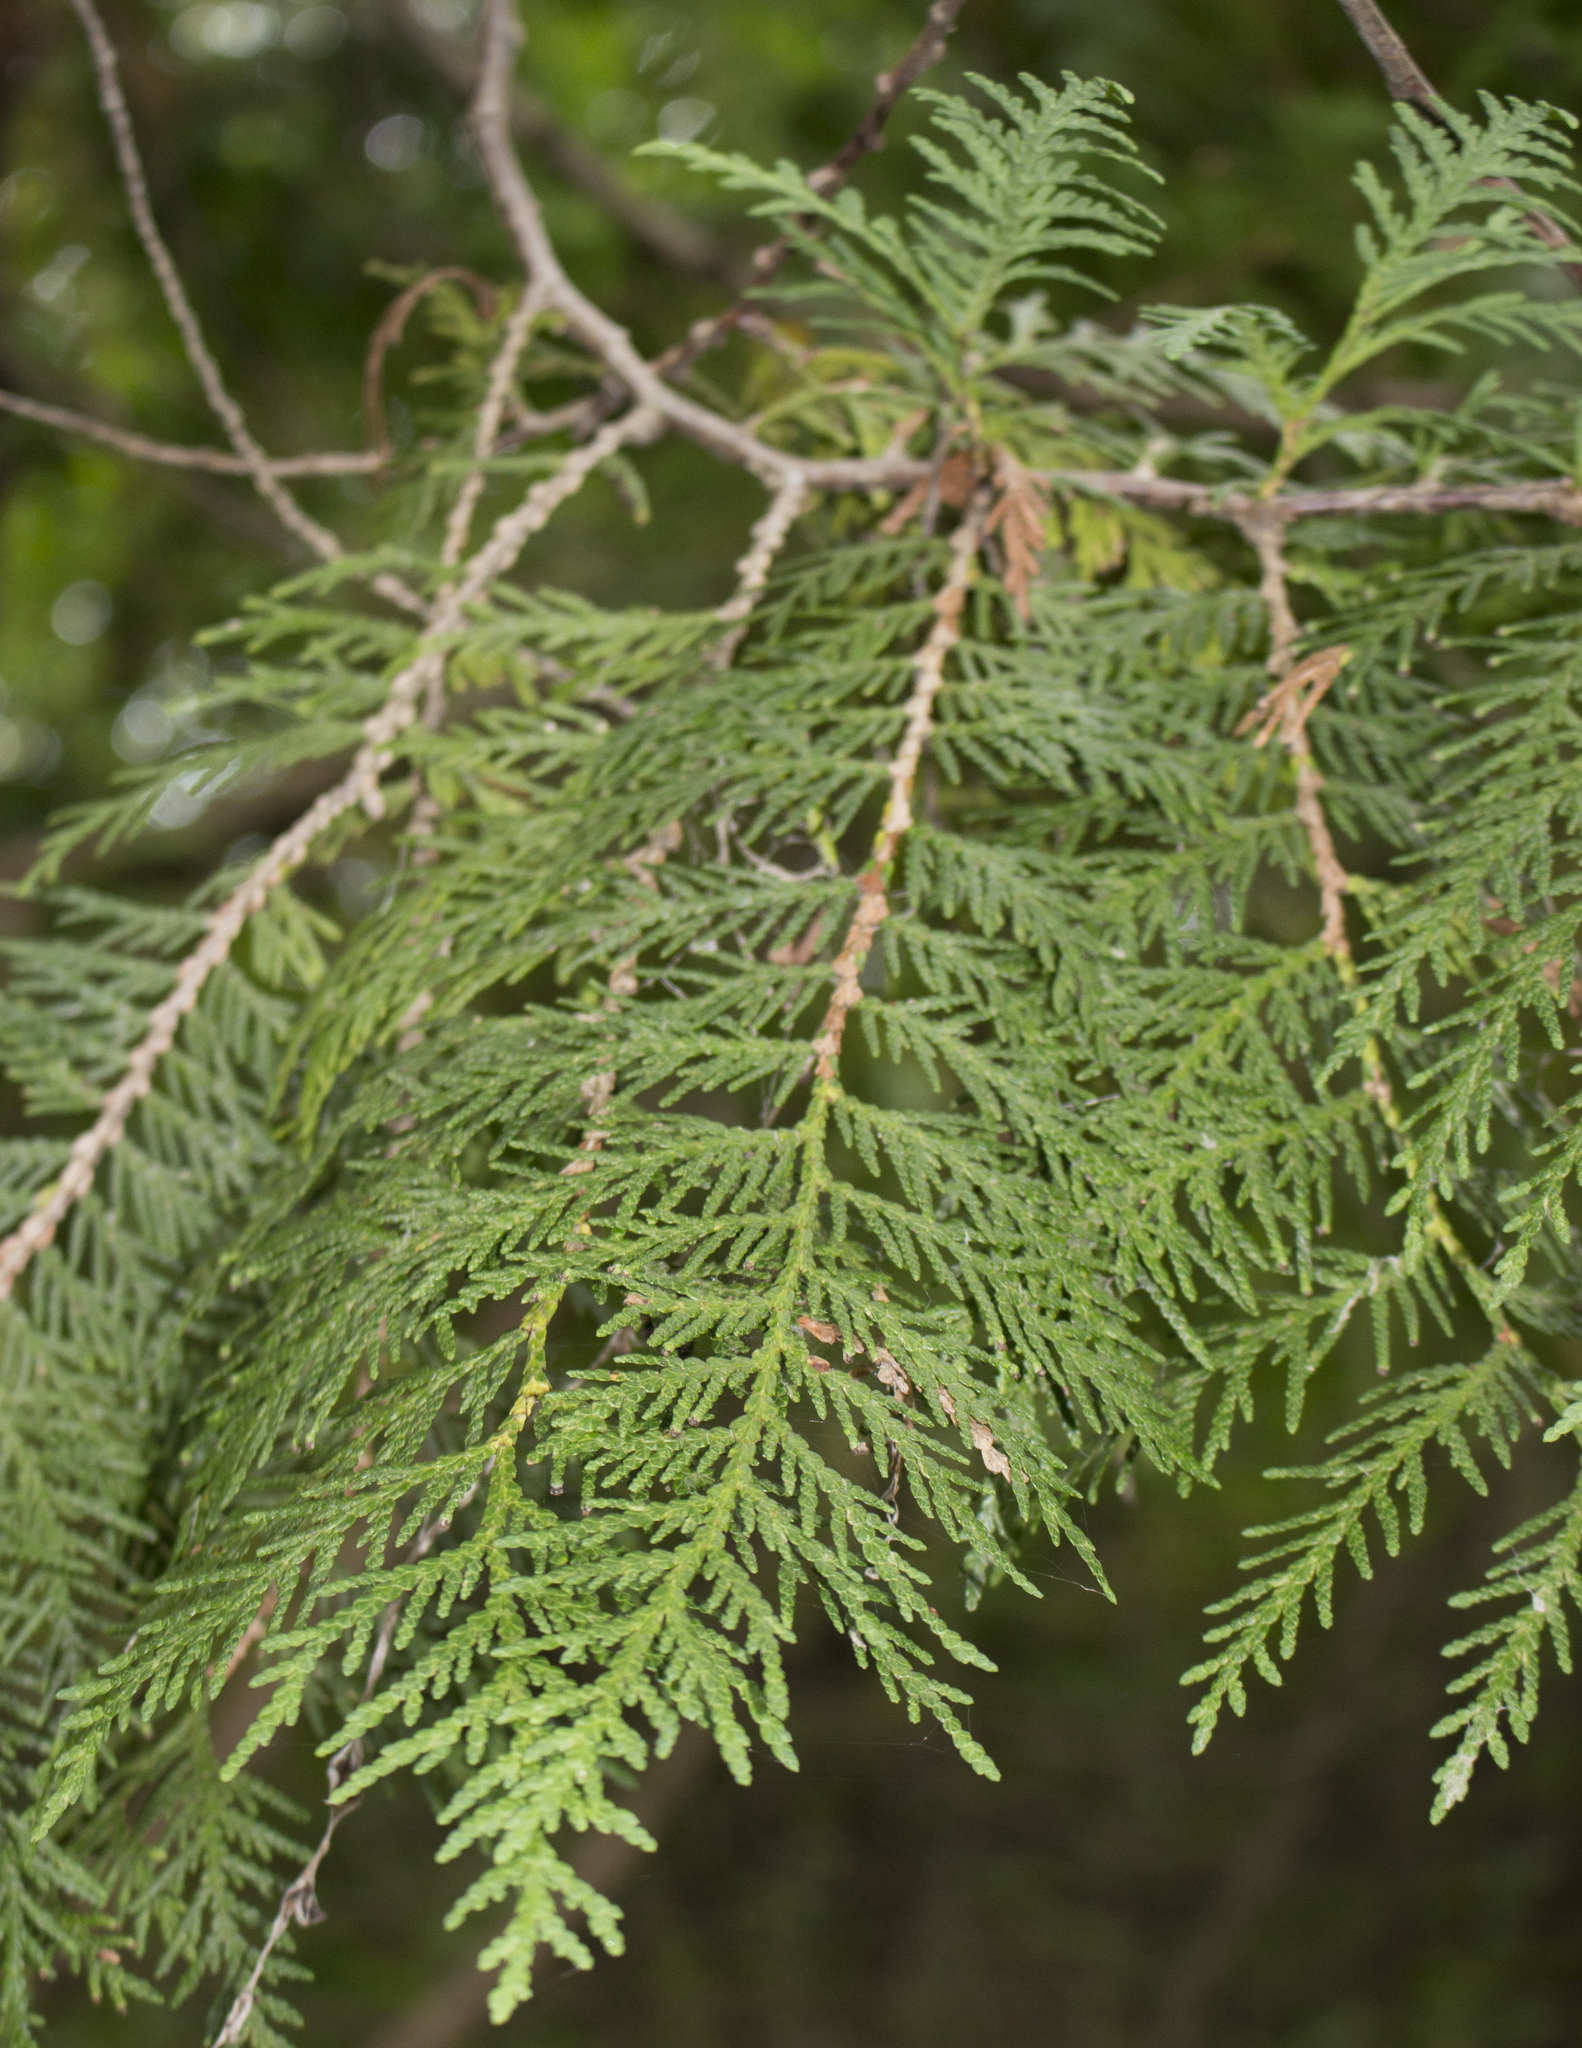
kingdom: Plantae
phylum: Tracheophyta
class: Pinopsida
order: Pinales
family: Cupressaceae
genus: Thuja
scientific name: Thuja occidentalis
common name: Northern white-cedar
